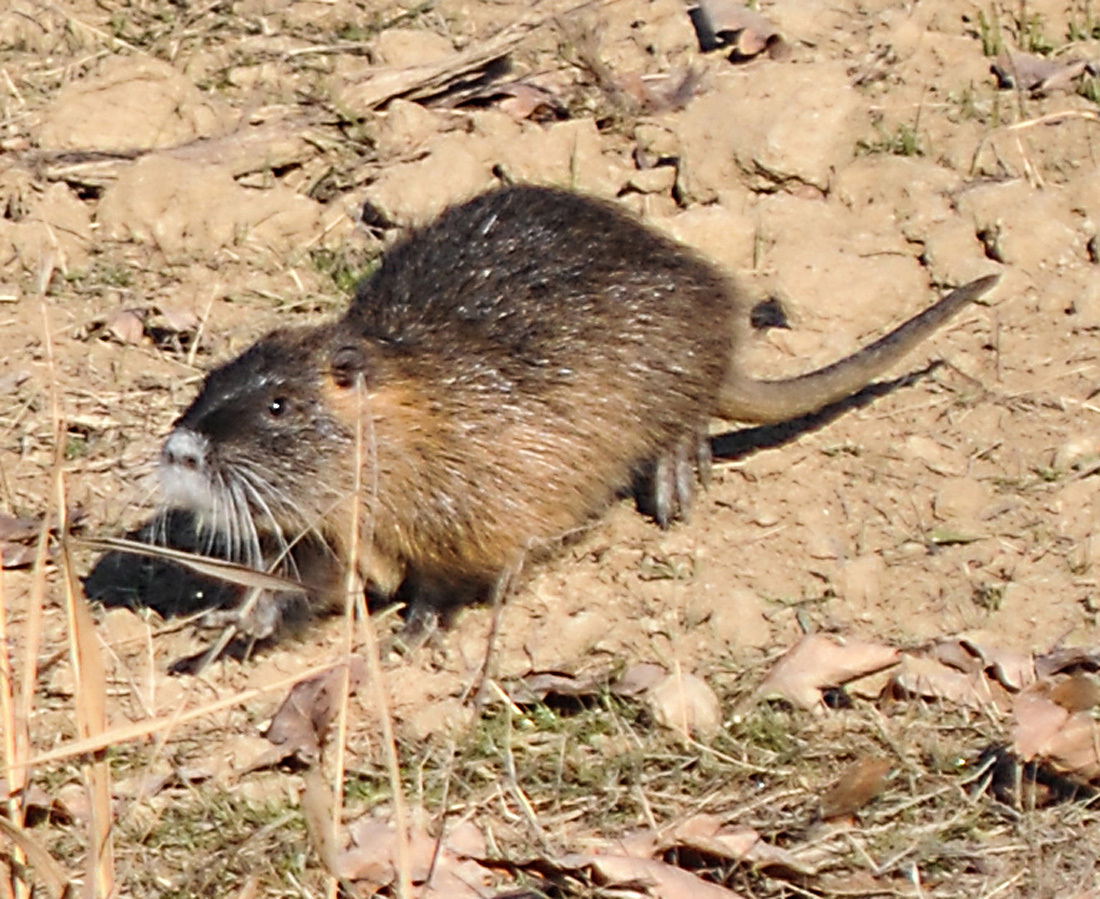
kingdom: Animalia
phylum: Chordata
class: Mammalia
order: Rodentia
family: Myocastoridae
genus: Myocastor
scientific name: Myocastor coypus
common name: Coypu
